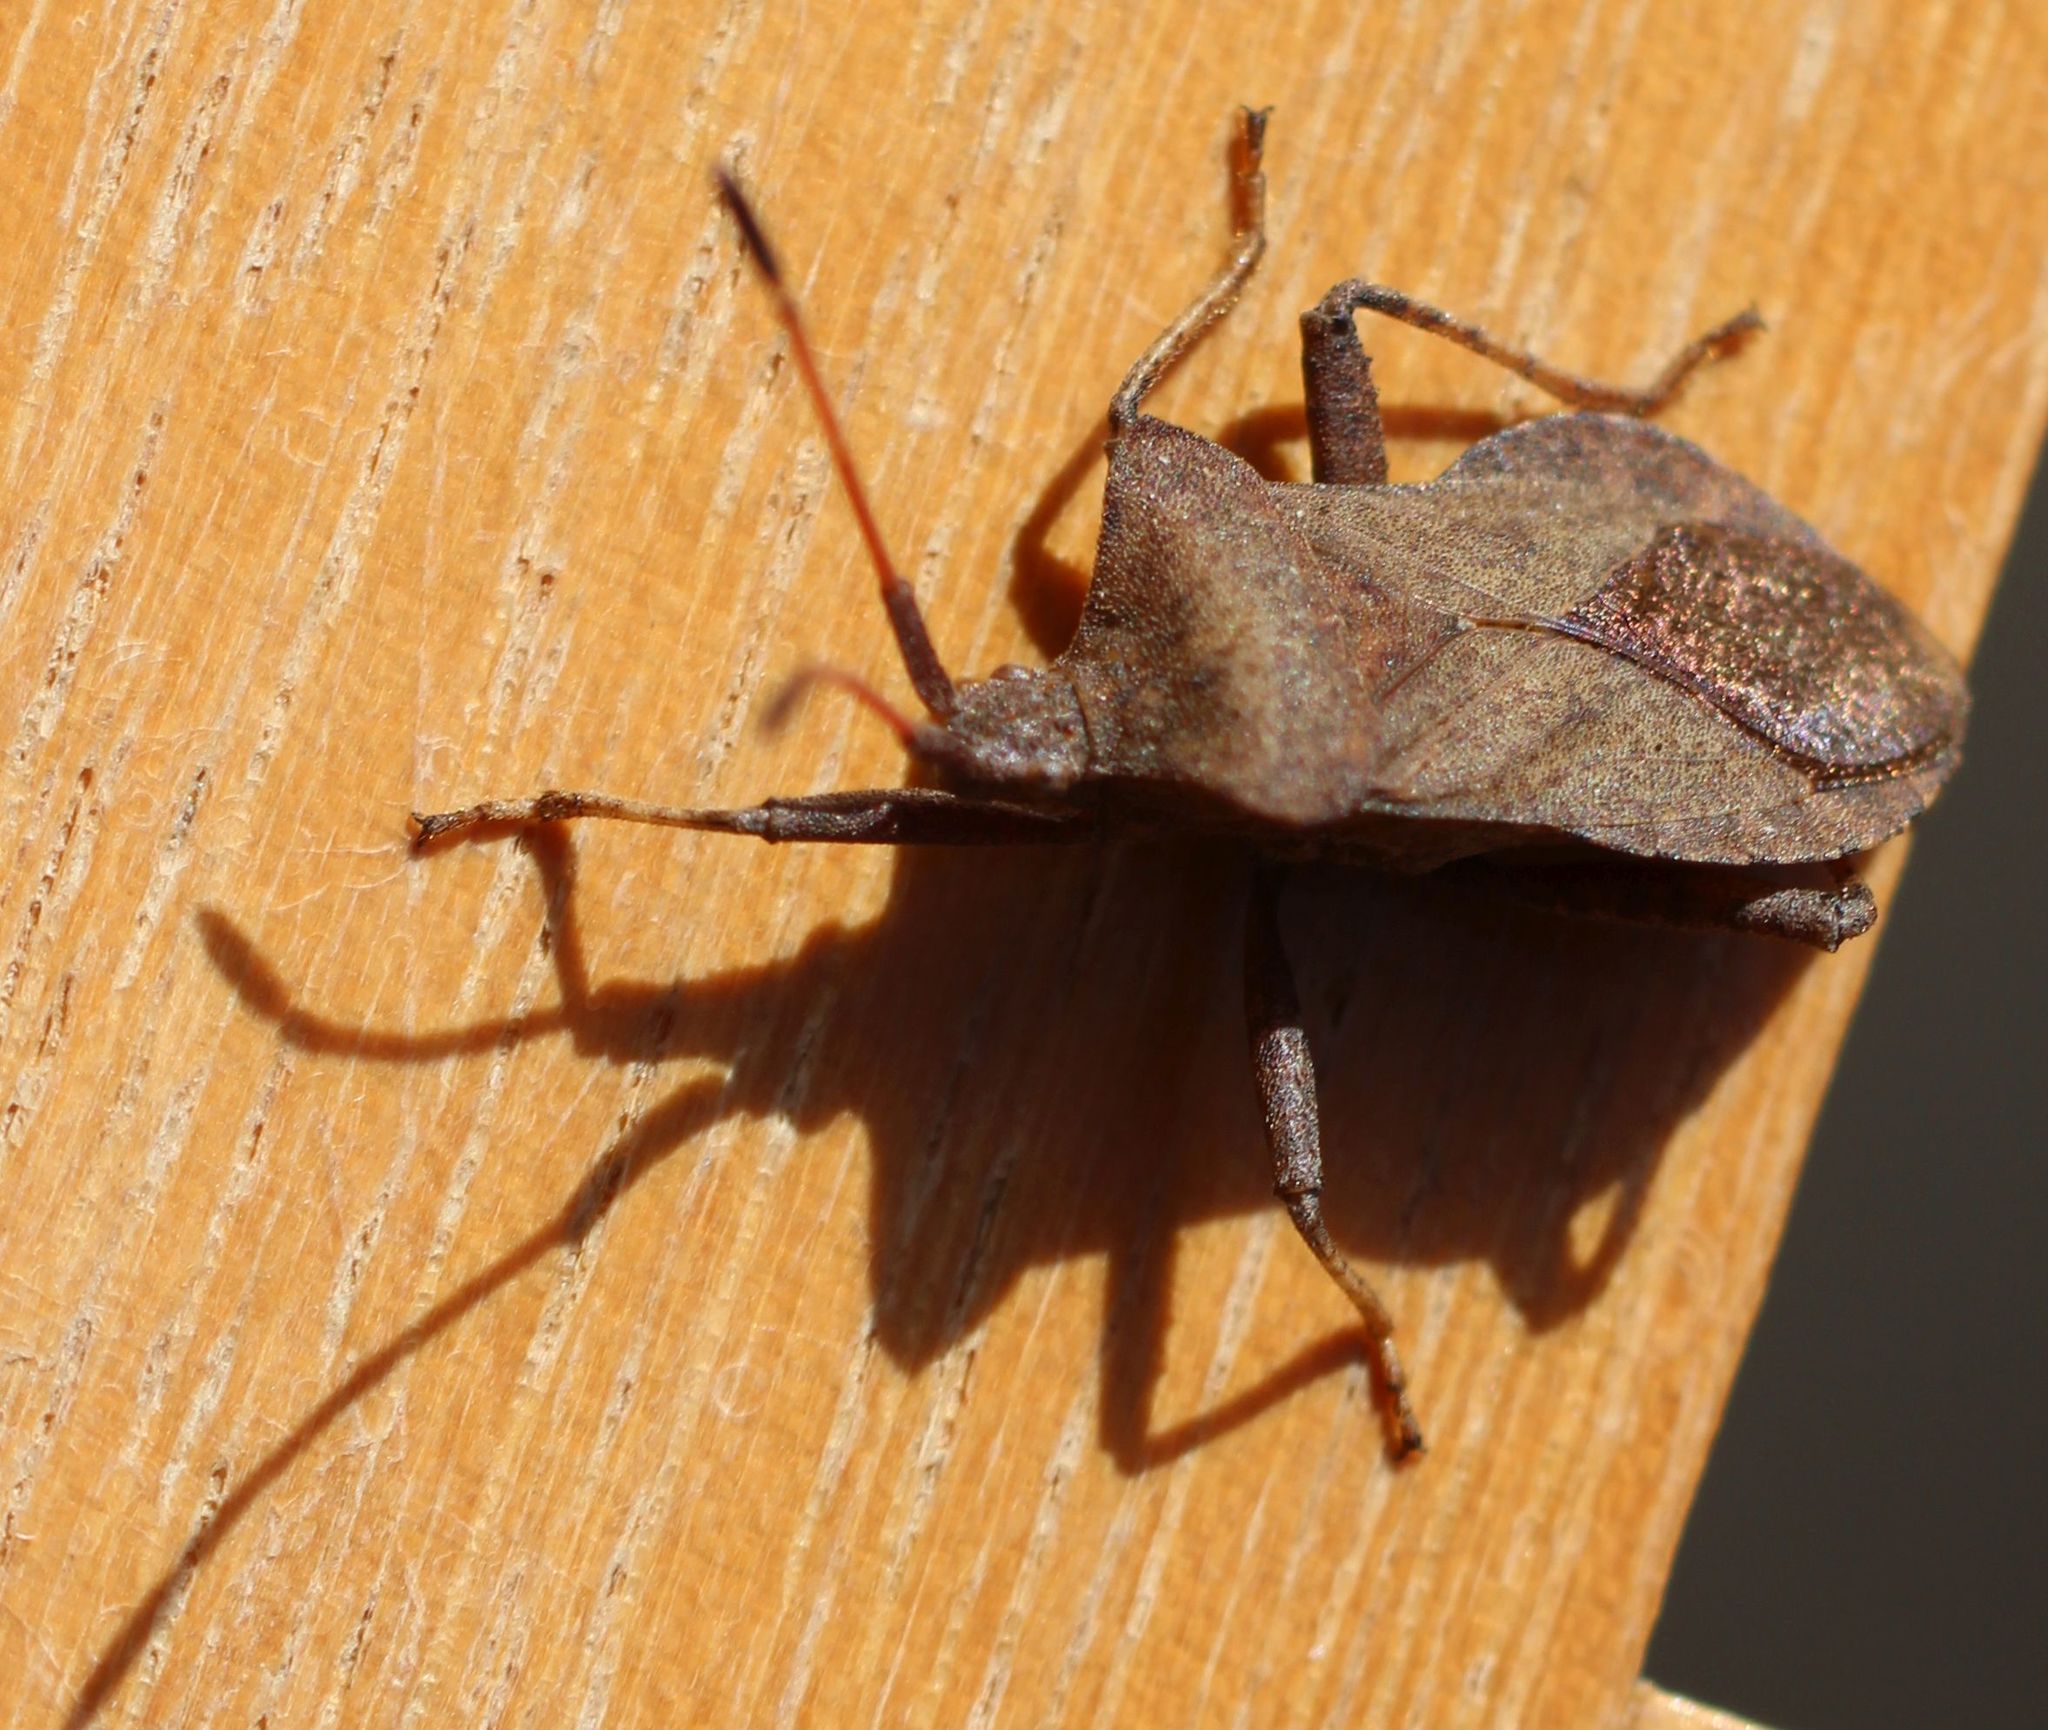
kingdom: Animalia
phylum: Arthropoda
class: Insecta
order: Hemiptera
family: Coreidae
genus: Coreus
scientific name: Coreus marginatus
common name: Dock bug
